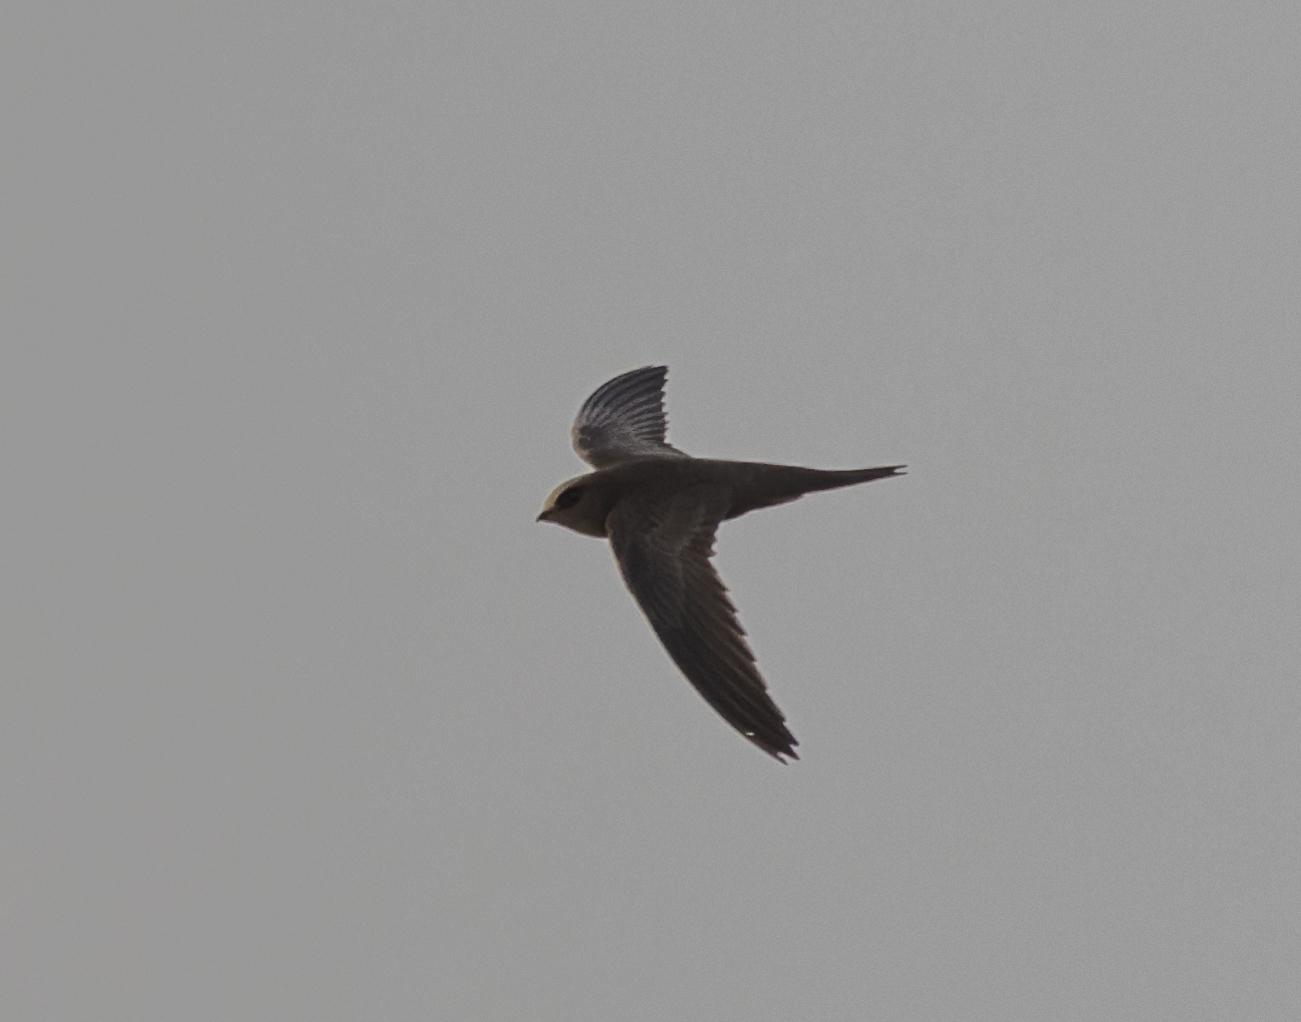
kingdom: Animalia
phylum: Chordata
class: Aves
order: Apodiformes
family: Apodidae
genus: Apus
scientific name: Apus pallidus
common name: Pallid swift
